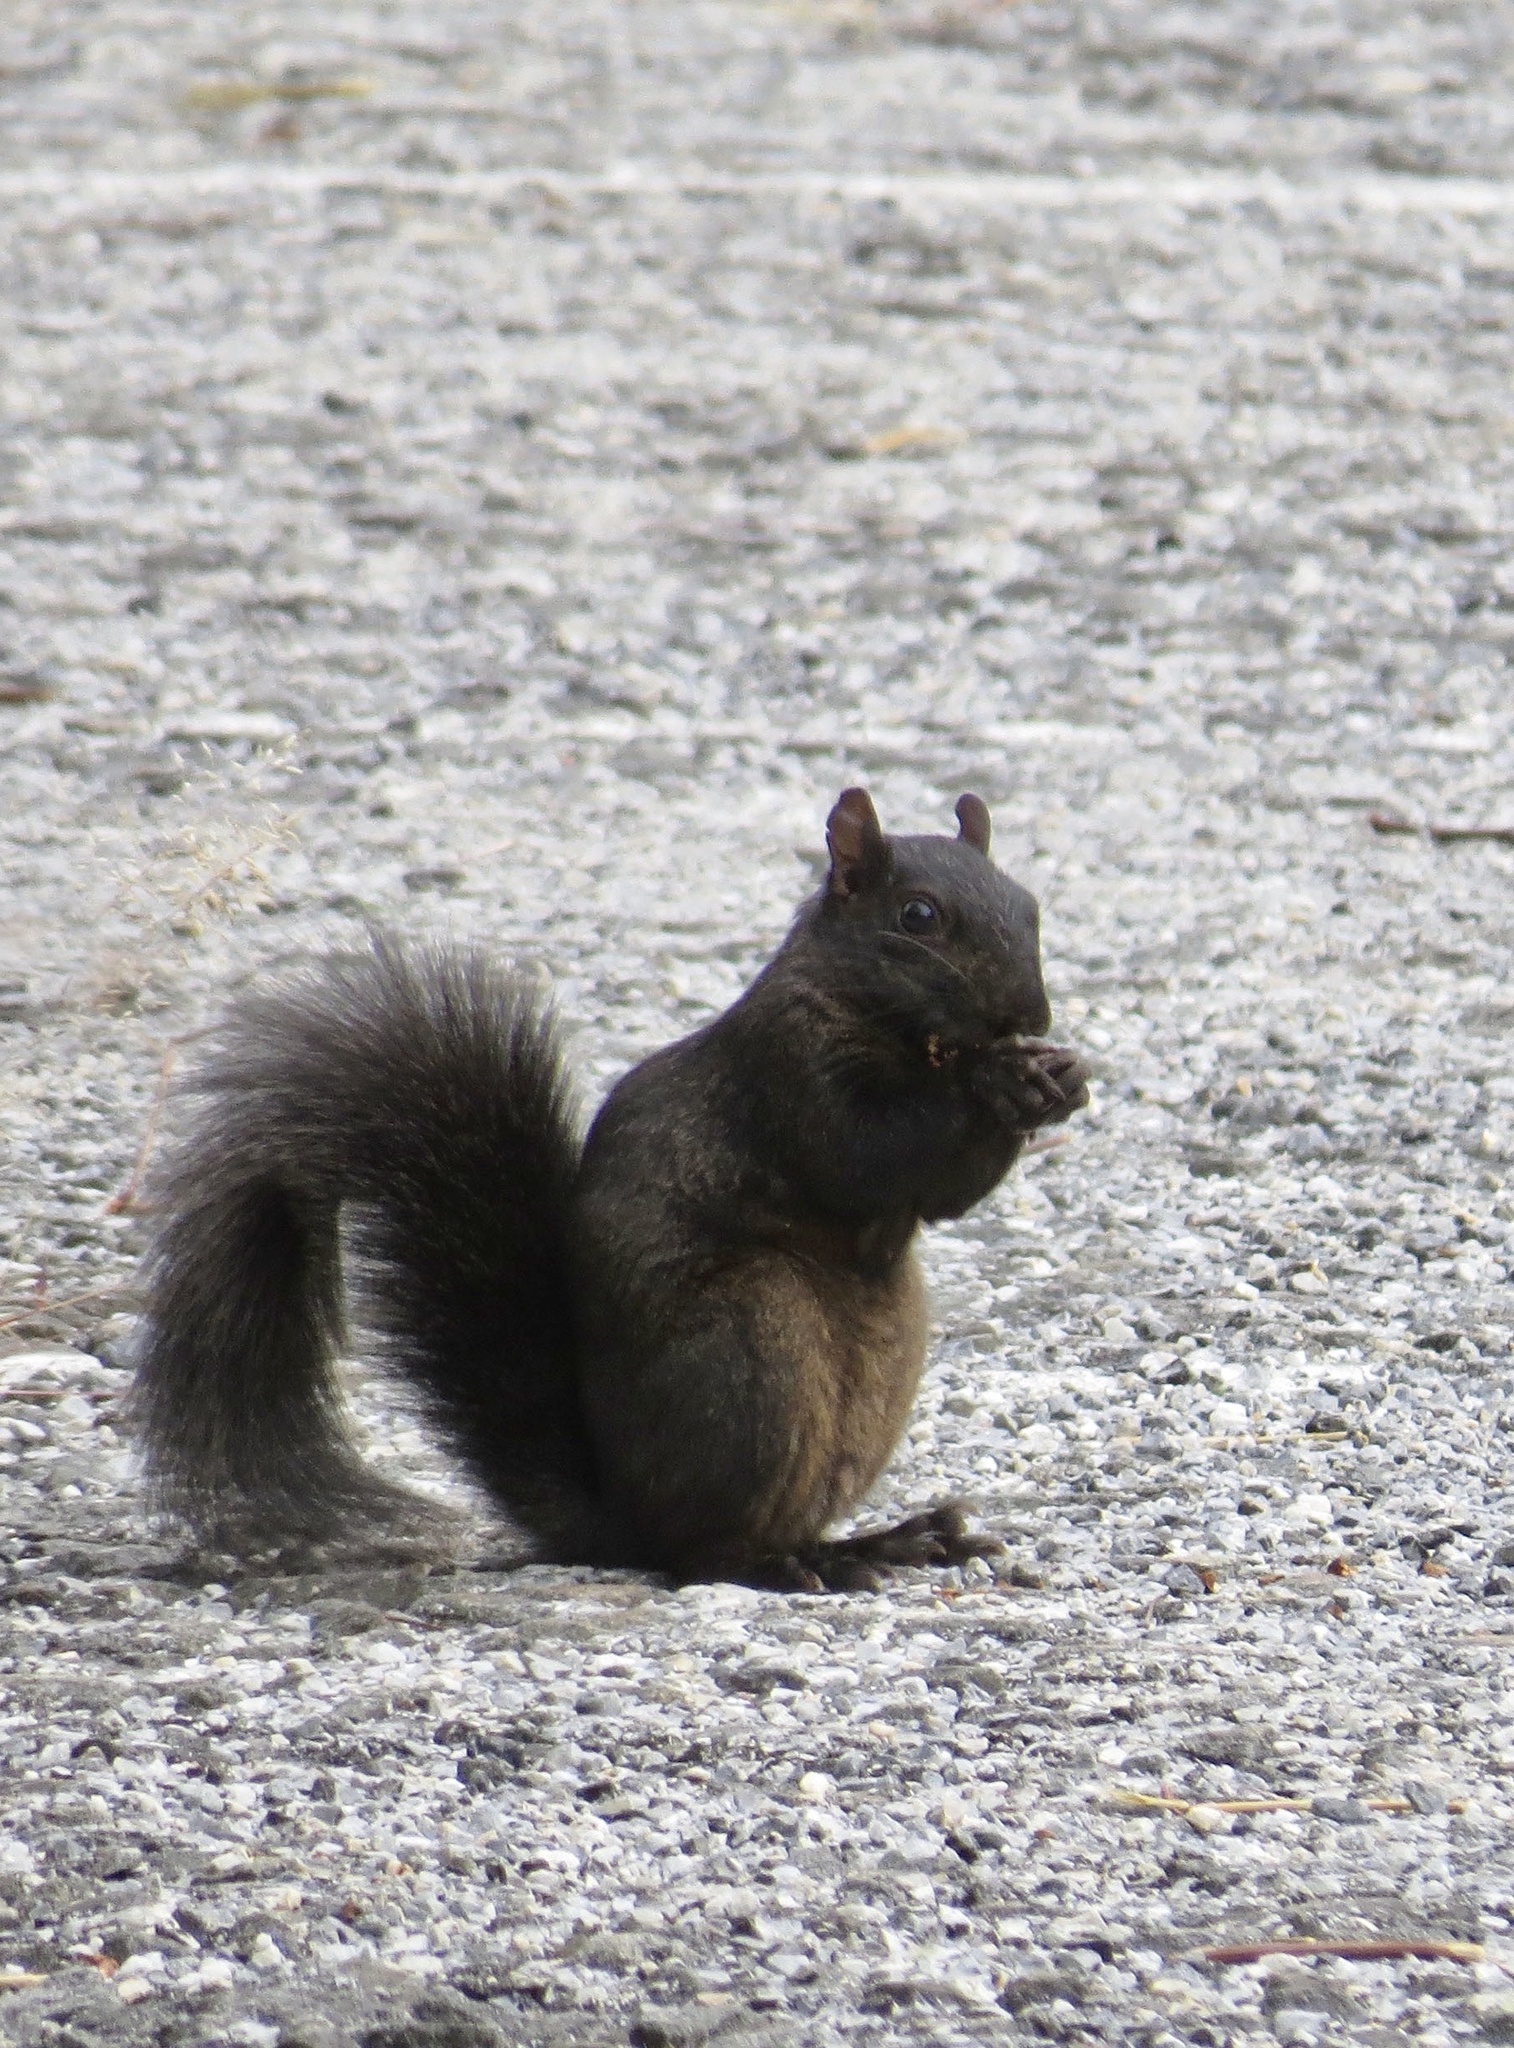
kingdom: Animalia
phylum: Chordata
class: Mammalia
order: Rodentia
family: Sciuridae
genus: Sciurus
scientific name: Sciurus carolinensis
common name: Eastern gray squirrel
